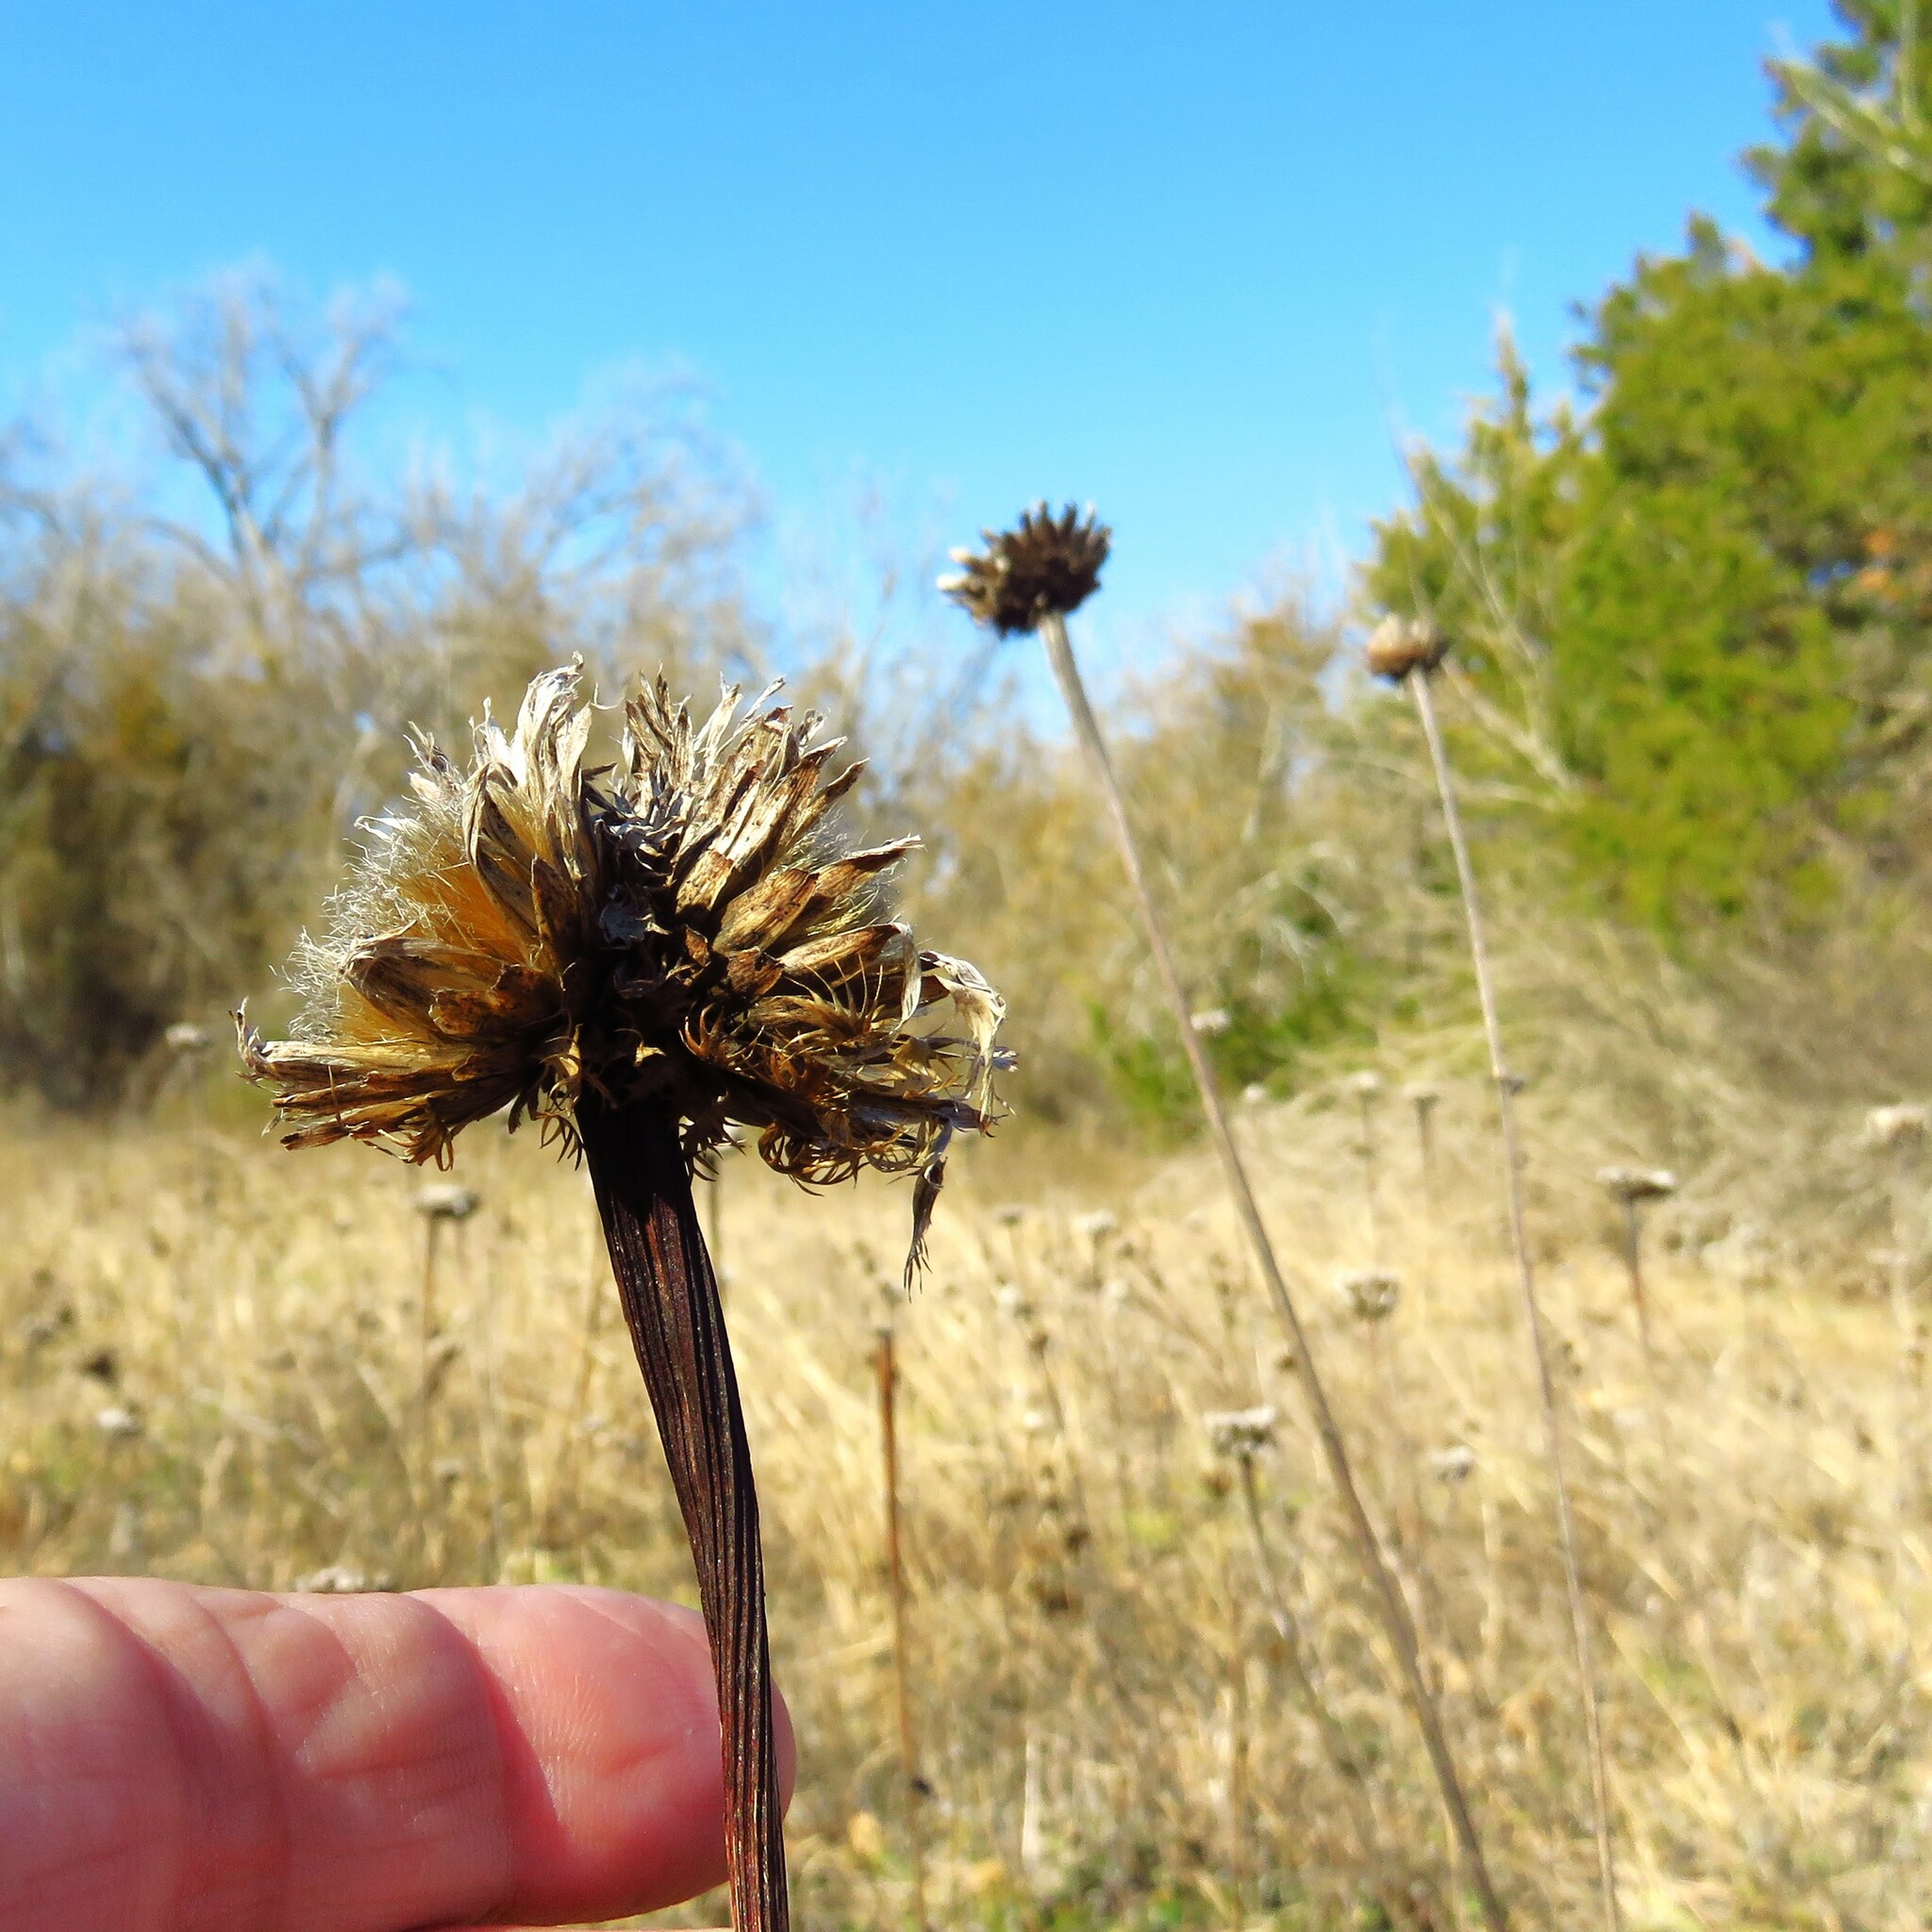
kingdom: Plantae
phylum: Tracheophyta
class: Magnoliopsida
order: Asterales
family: Asteraceae
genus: Plectocephalus
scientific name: Plectocephalus americanus
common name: American basket-flower
